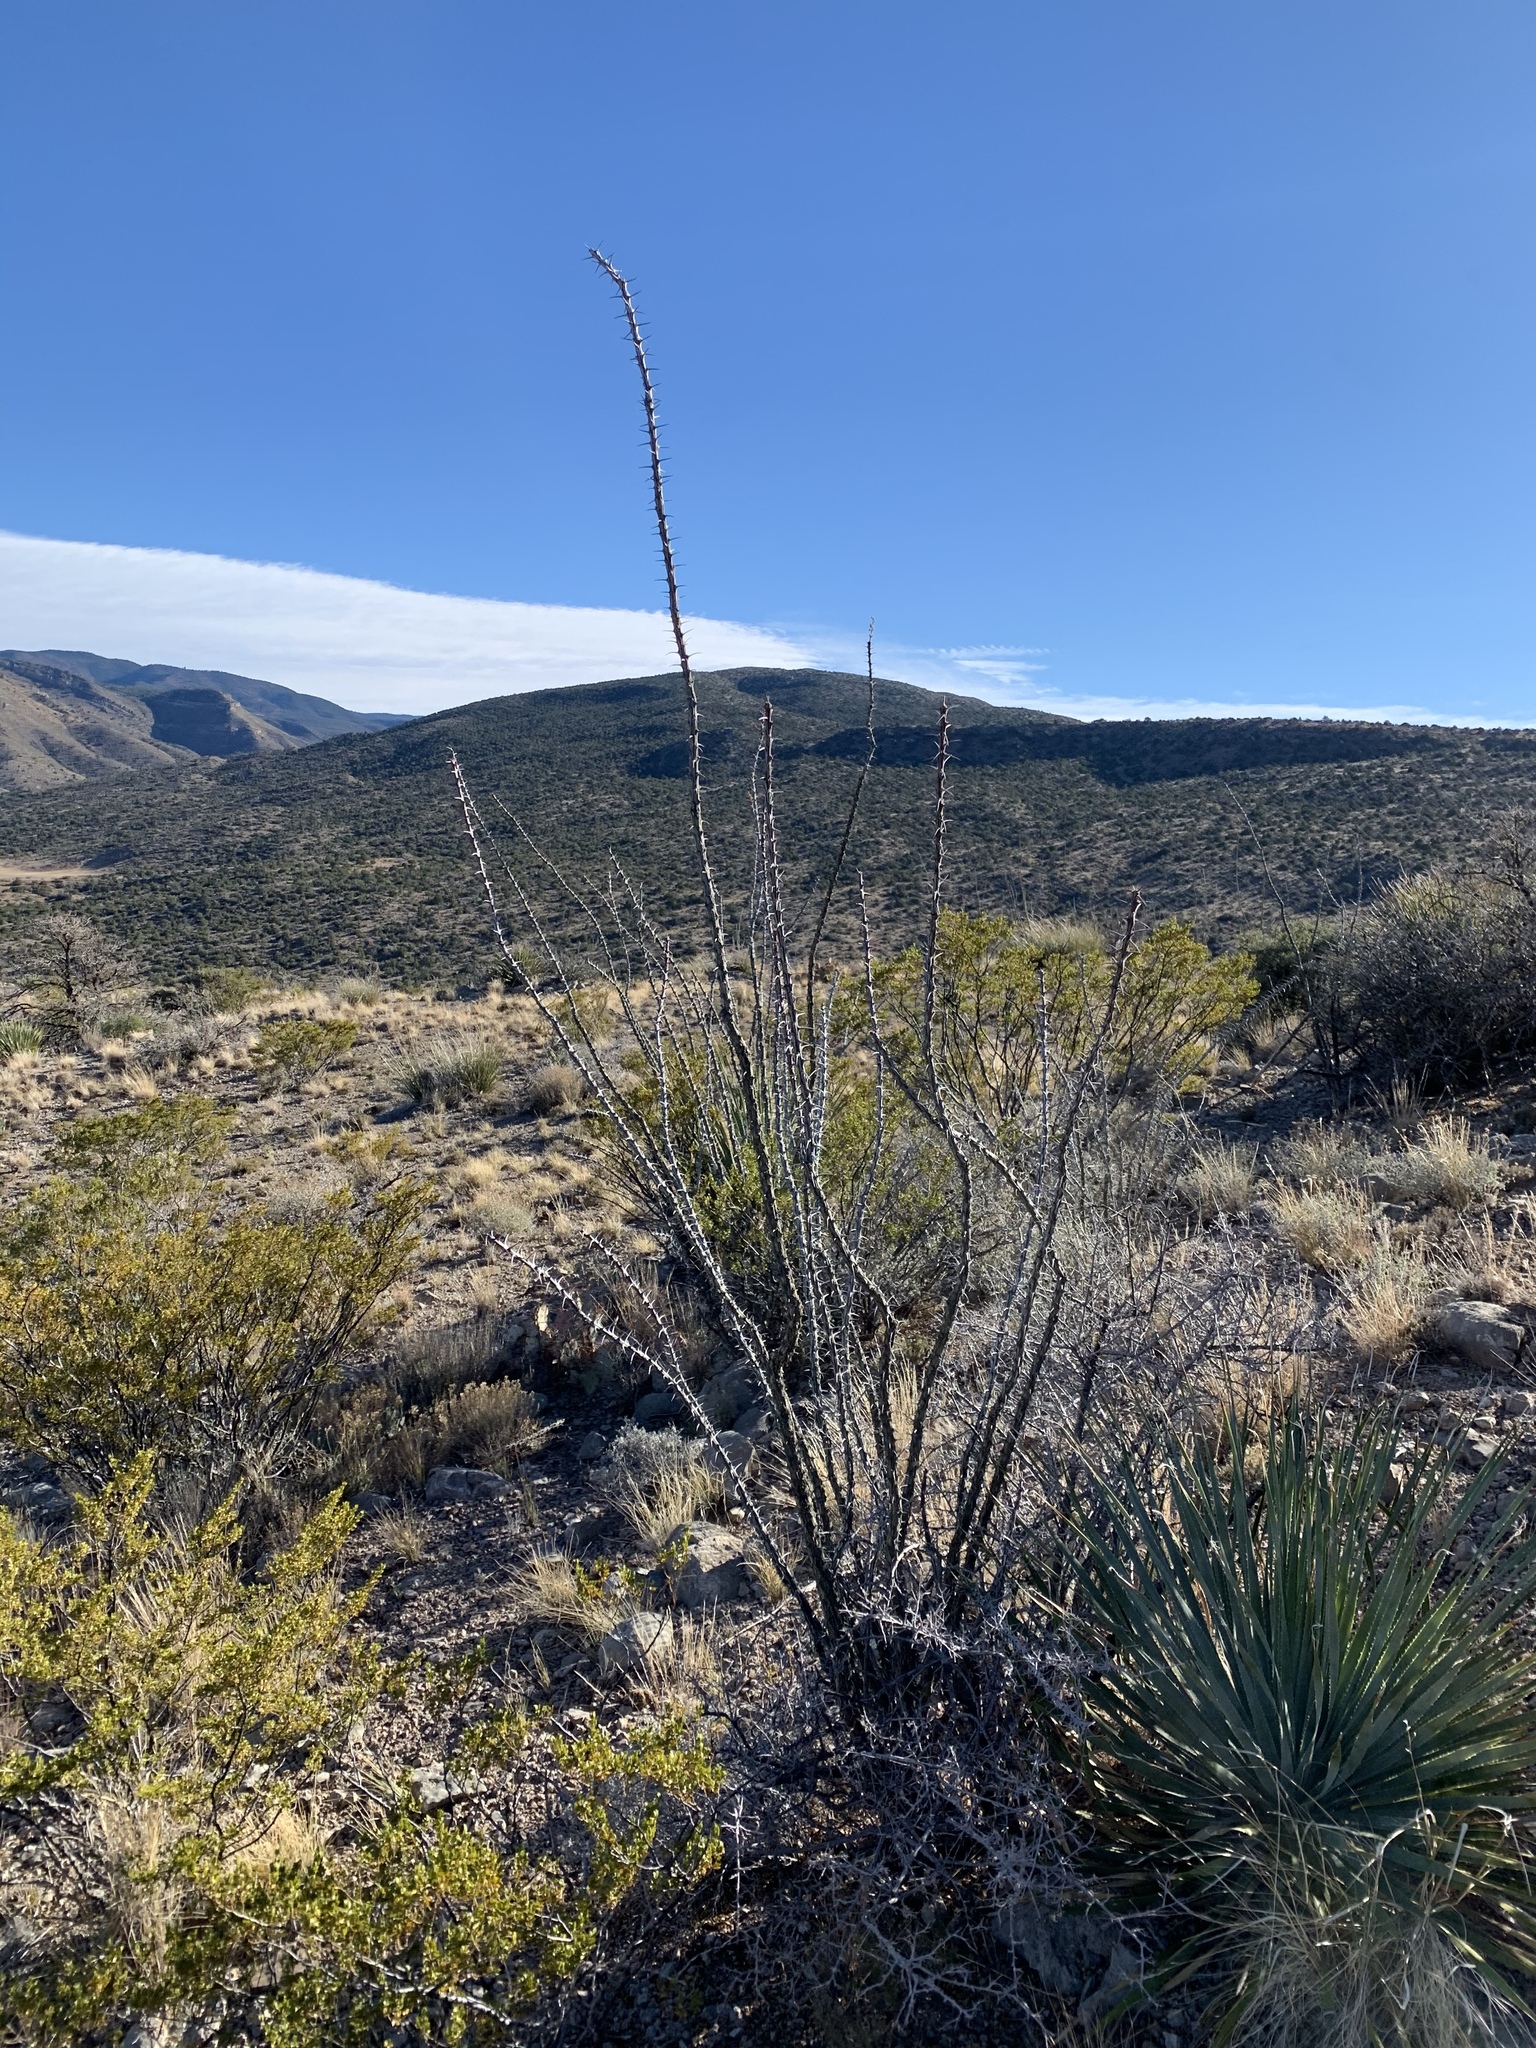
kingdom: Plantae
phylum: Tracheophyta
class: Magnoliopsida
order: Ericales
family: Fouquieriaceae
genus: Fouquieria
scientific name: Fouquieria splendens
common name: Vine-cactus
